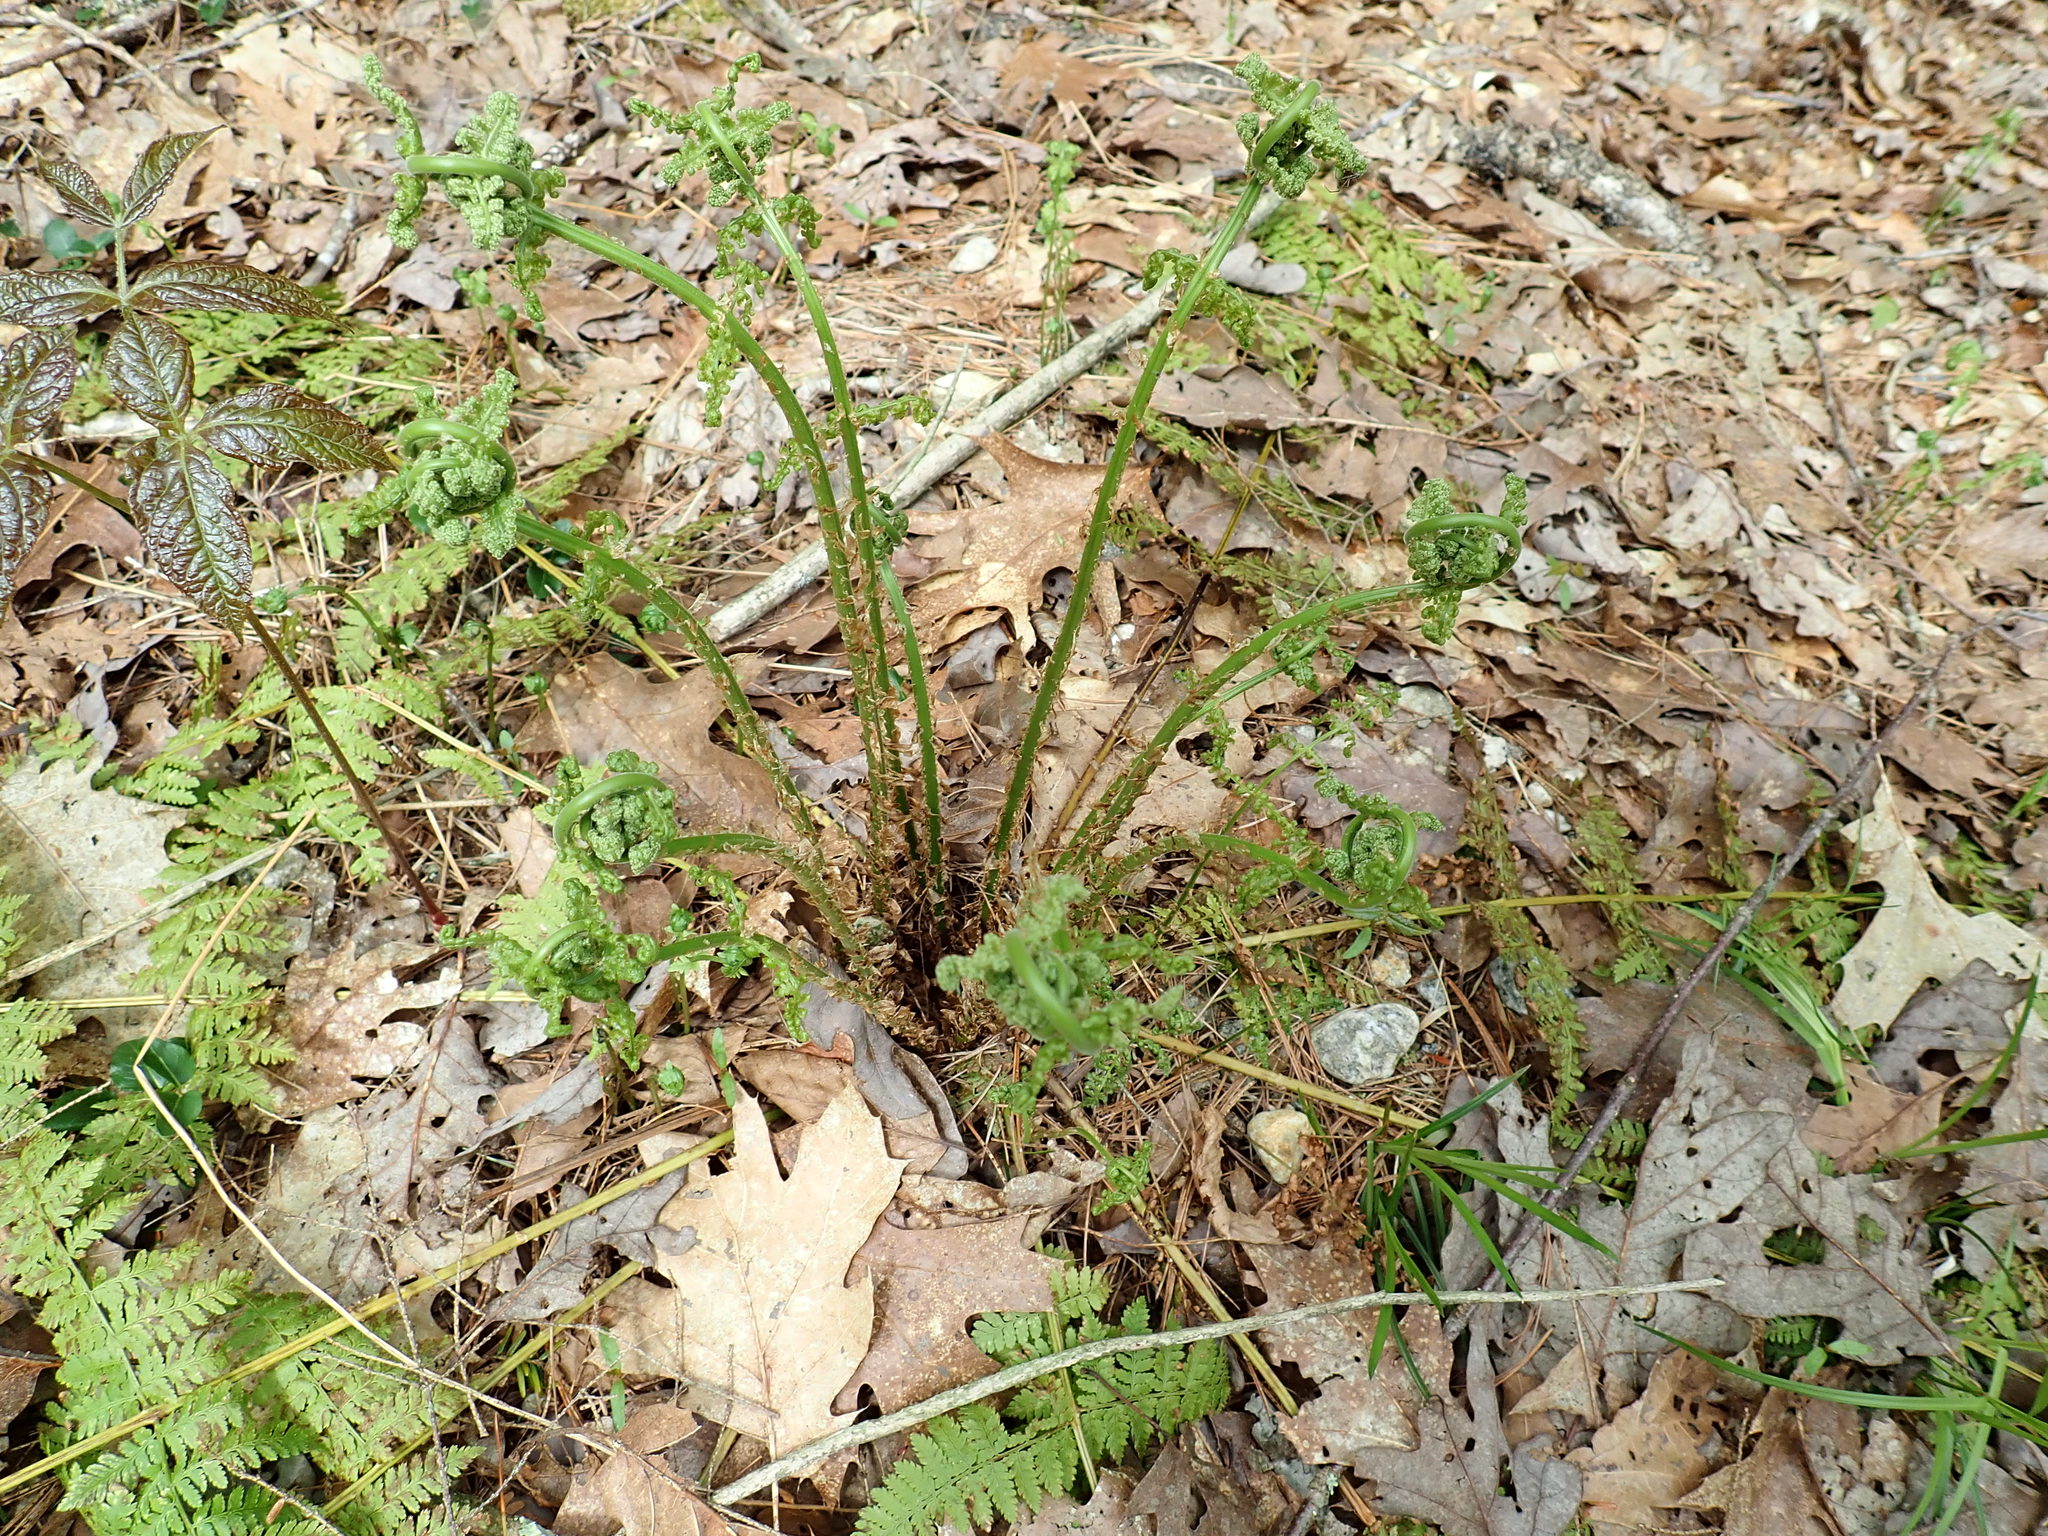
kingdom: Plantae
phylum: Tracheophyta
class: Polypodiopsida
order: Polypodiales
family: Dryopteridaceae
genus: Dryopteris
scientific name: Dryopteris intermedia
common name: Evergreen wood fern
